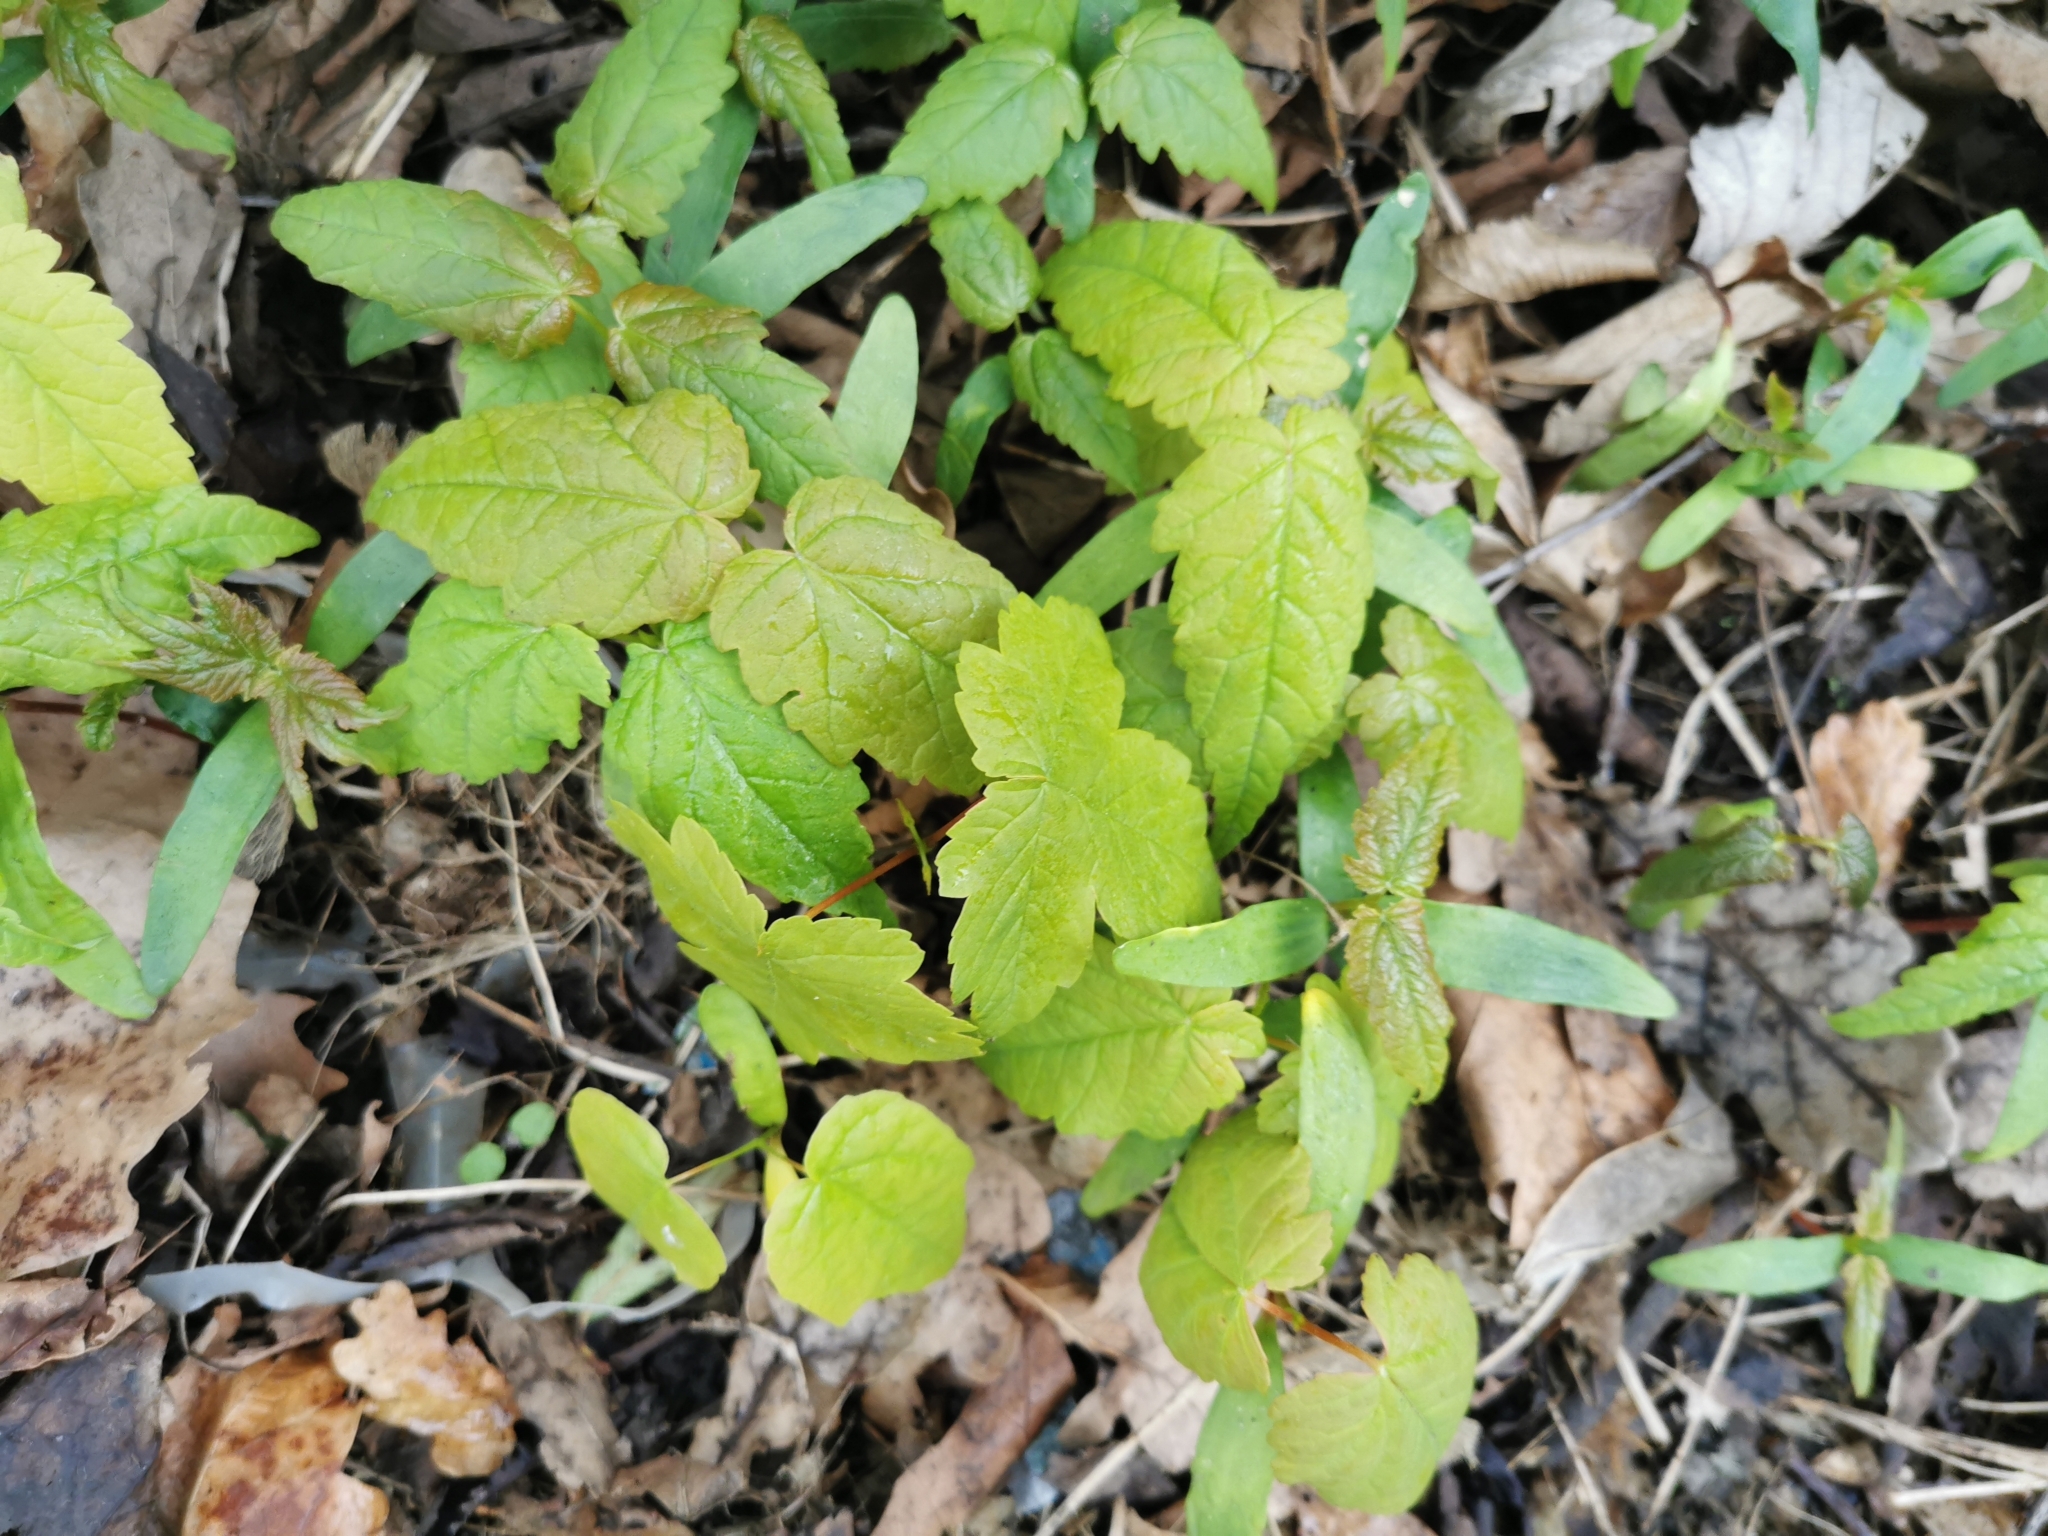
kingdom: Plantae
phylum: Tracheophyta
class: Magnoliopsida
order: Sapindales
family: Sapindaceae
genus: Acer
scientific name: Acer pseudoplatanus
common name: Sycamore
